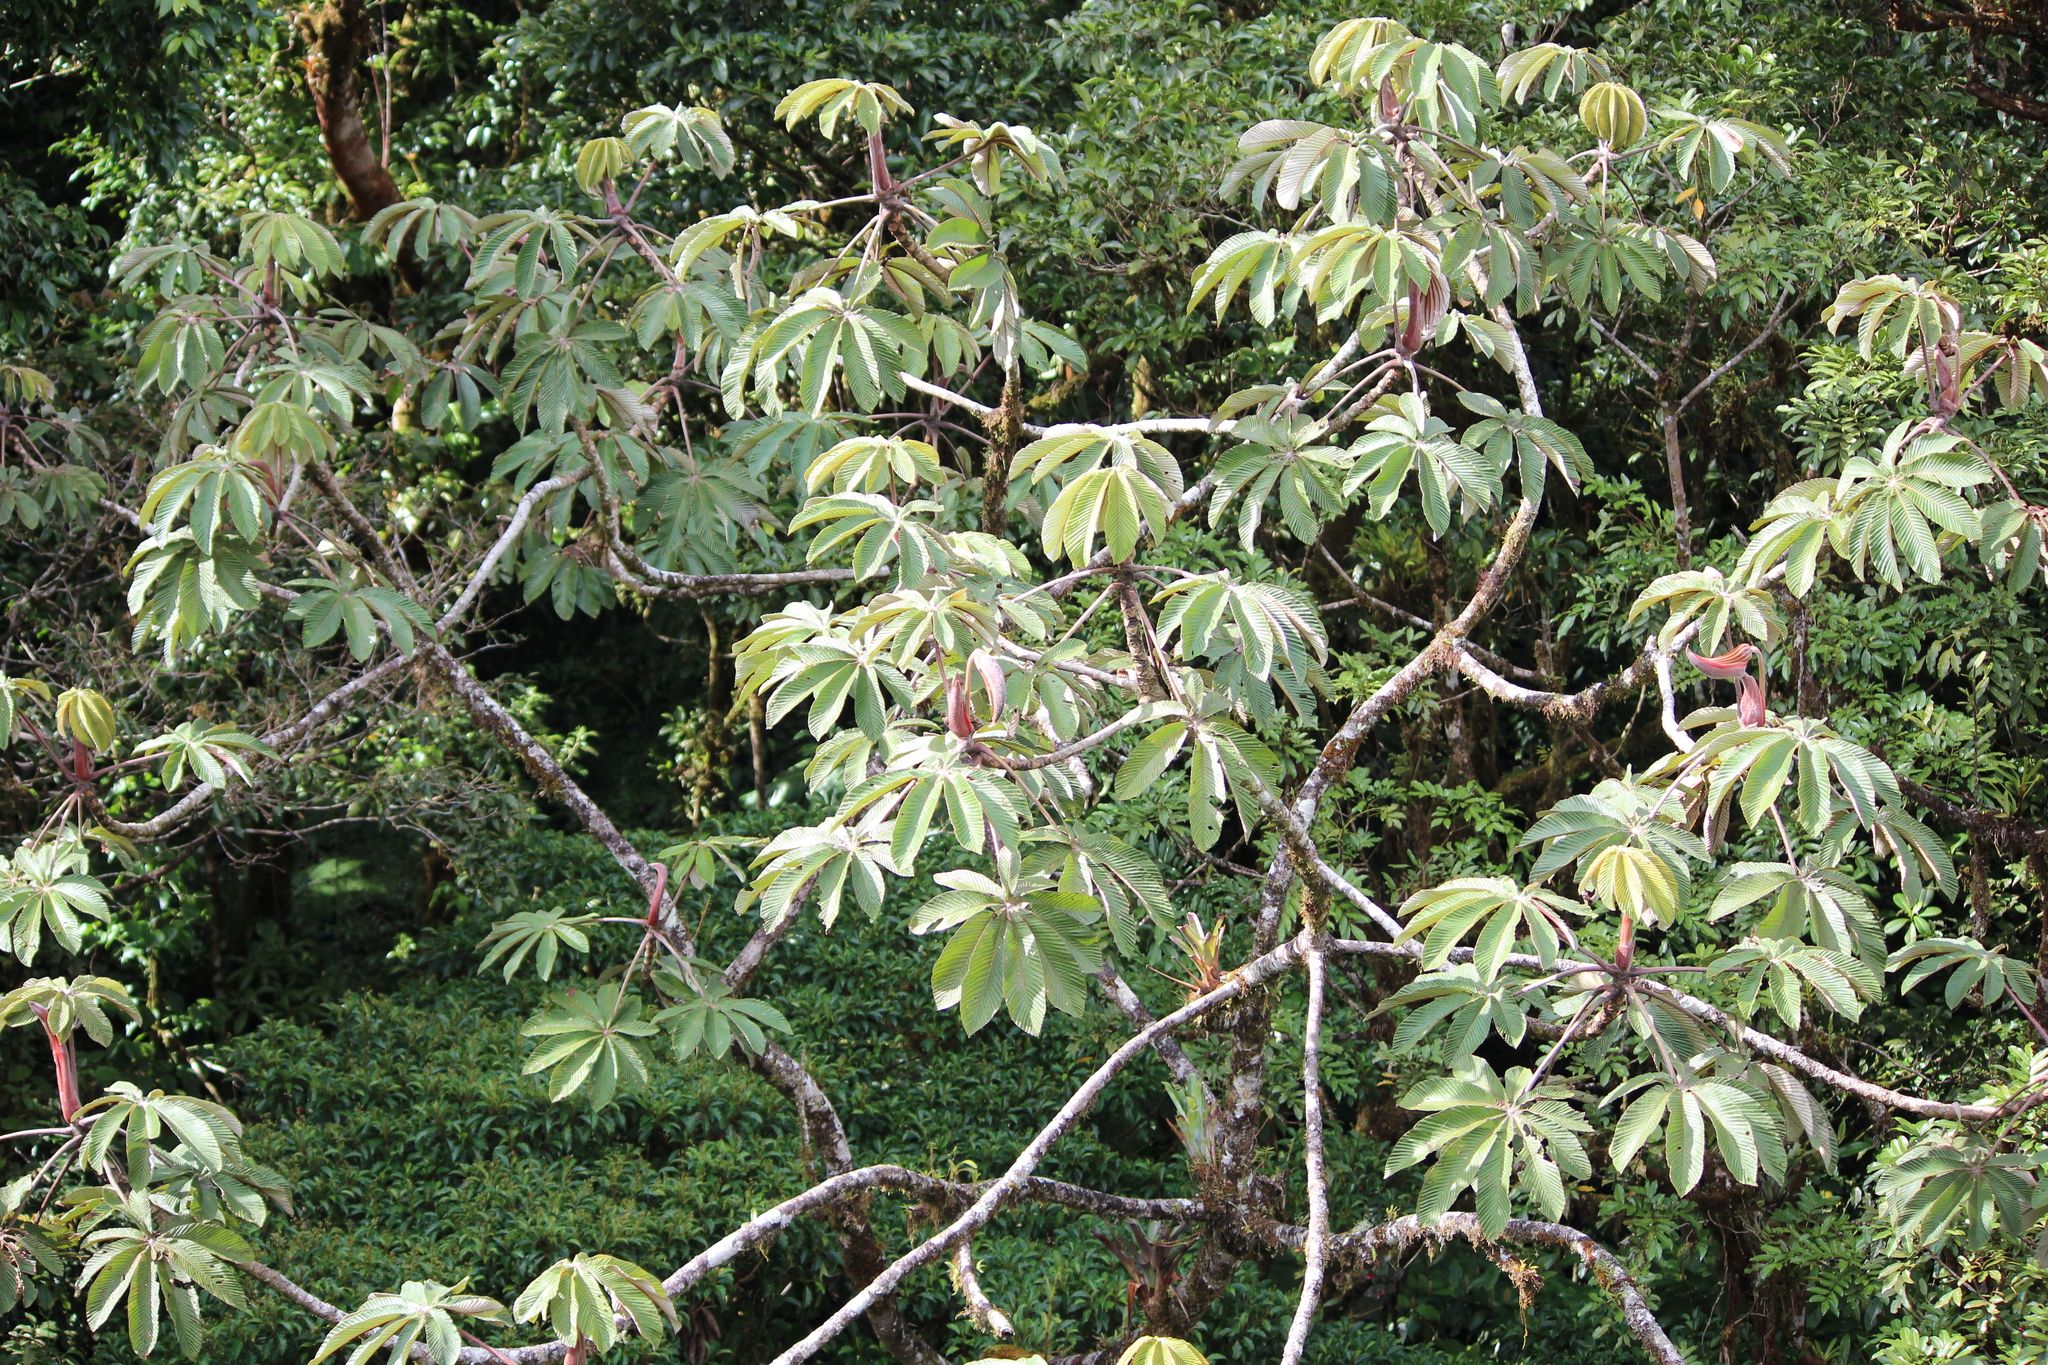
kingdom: Plantae
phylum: Tracheophyta
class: Magnoliopsida
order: Rosales
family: Urticaceae
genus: Cecropia
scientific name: Cecropia angustifolia
